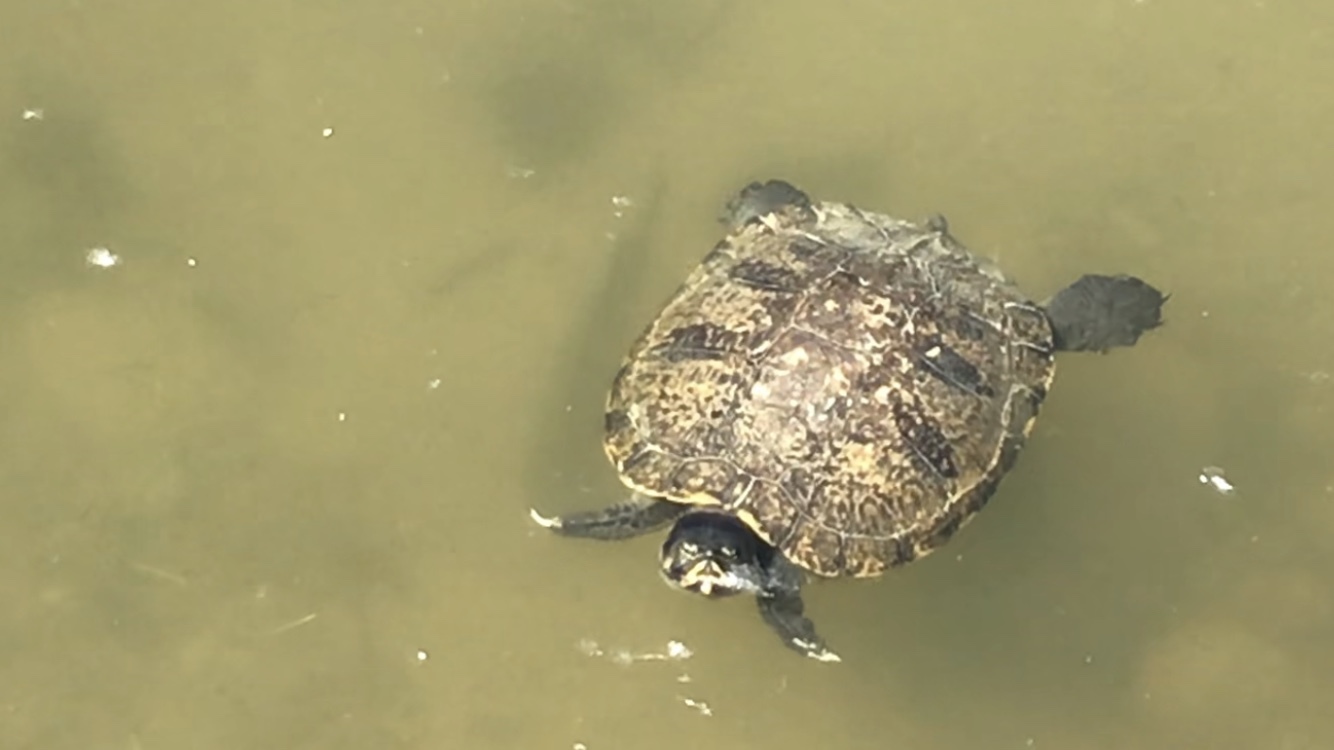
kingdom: Animalia
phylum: Chordata
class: Testudines
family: Emydidae
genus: Trachemys
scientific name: Trachemys scripta
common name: Slider
